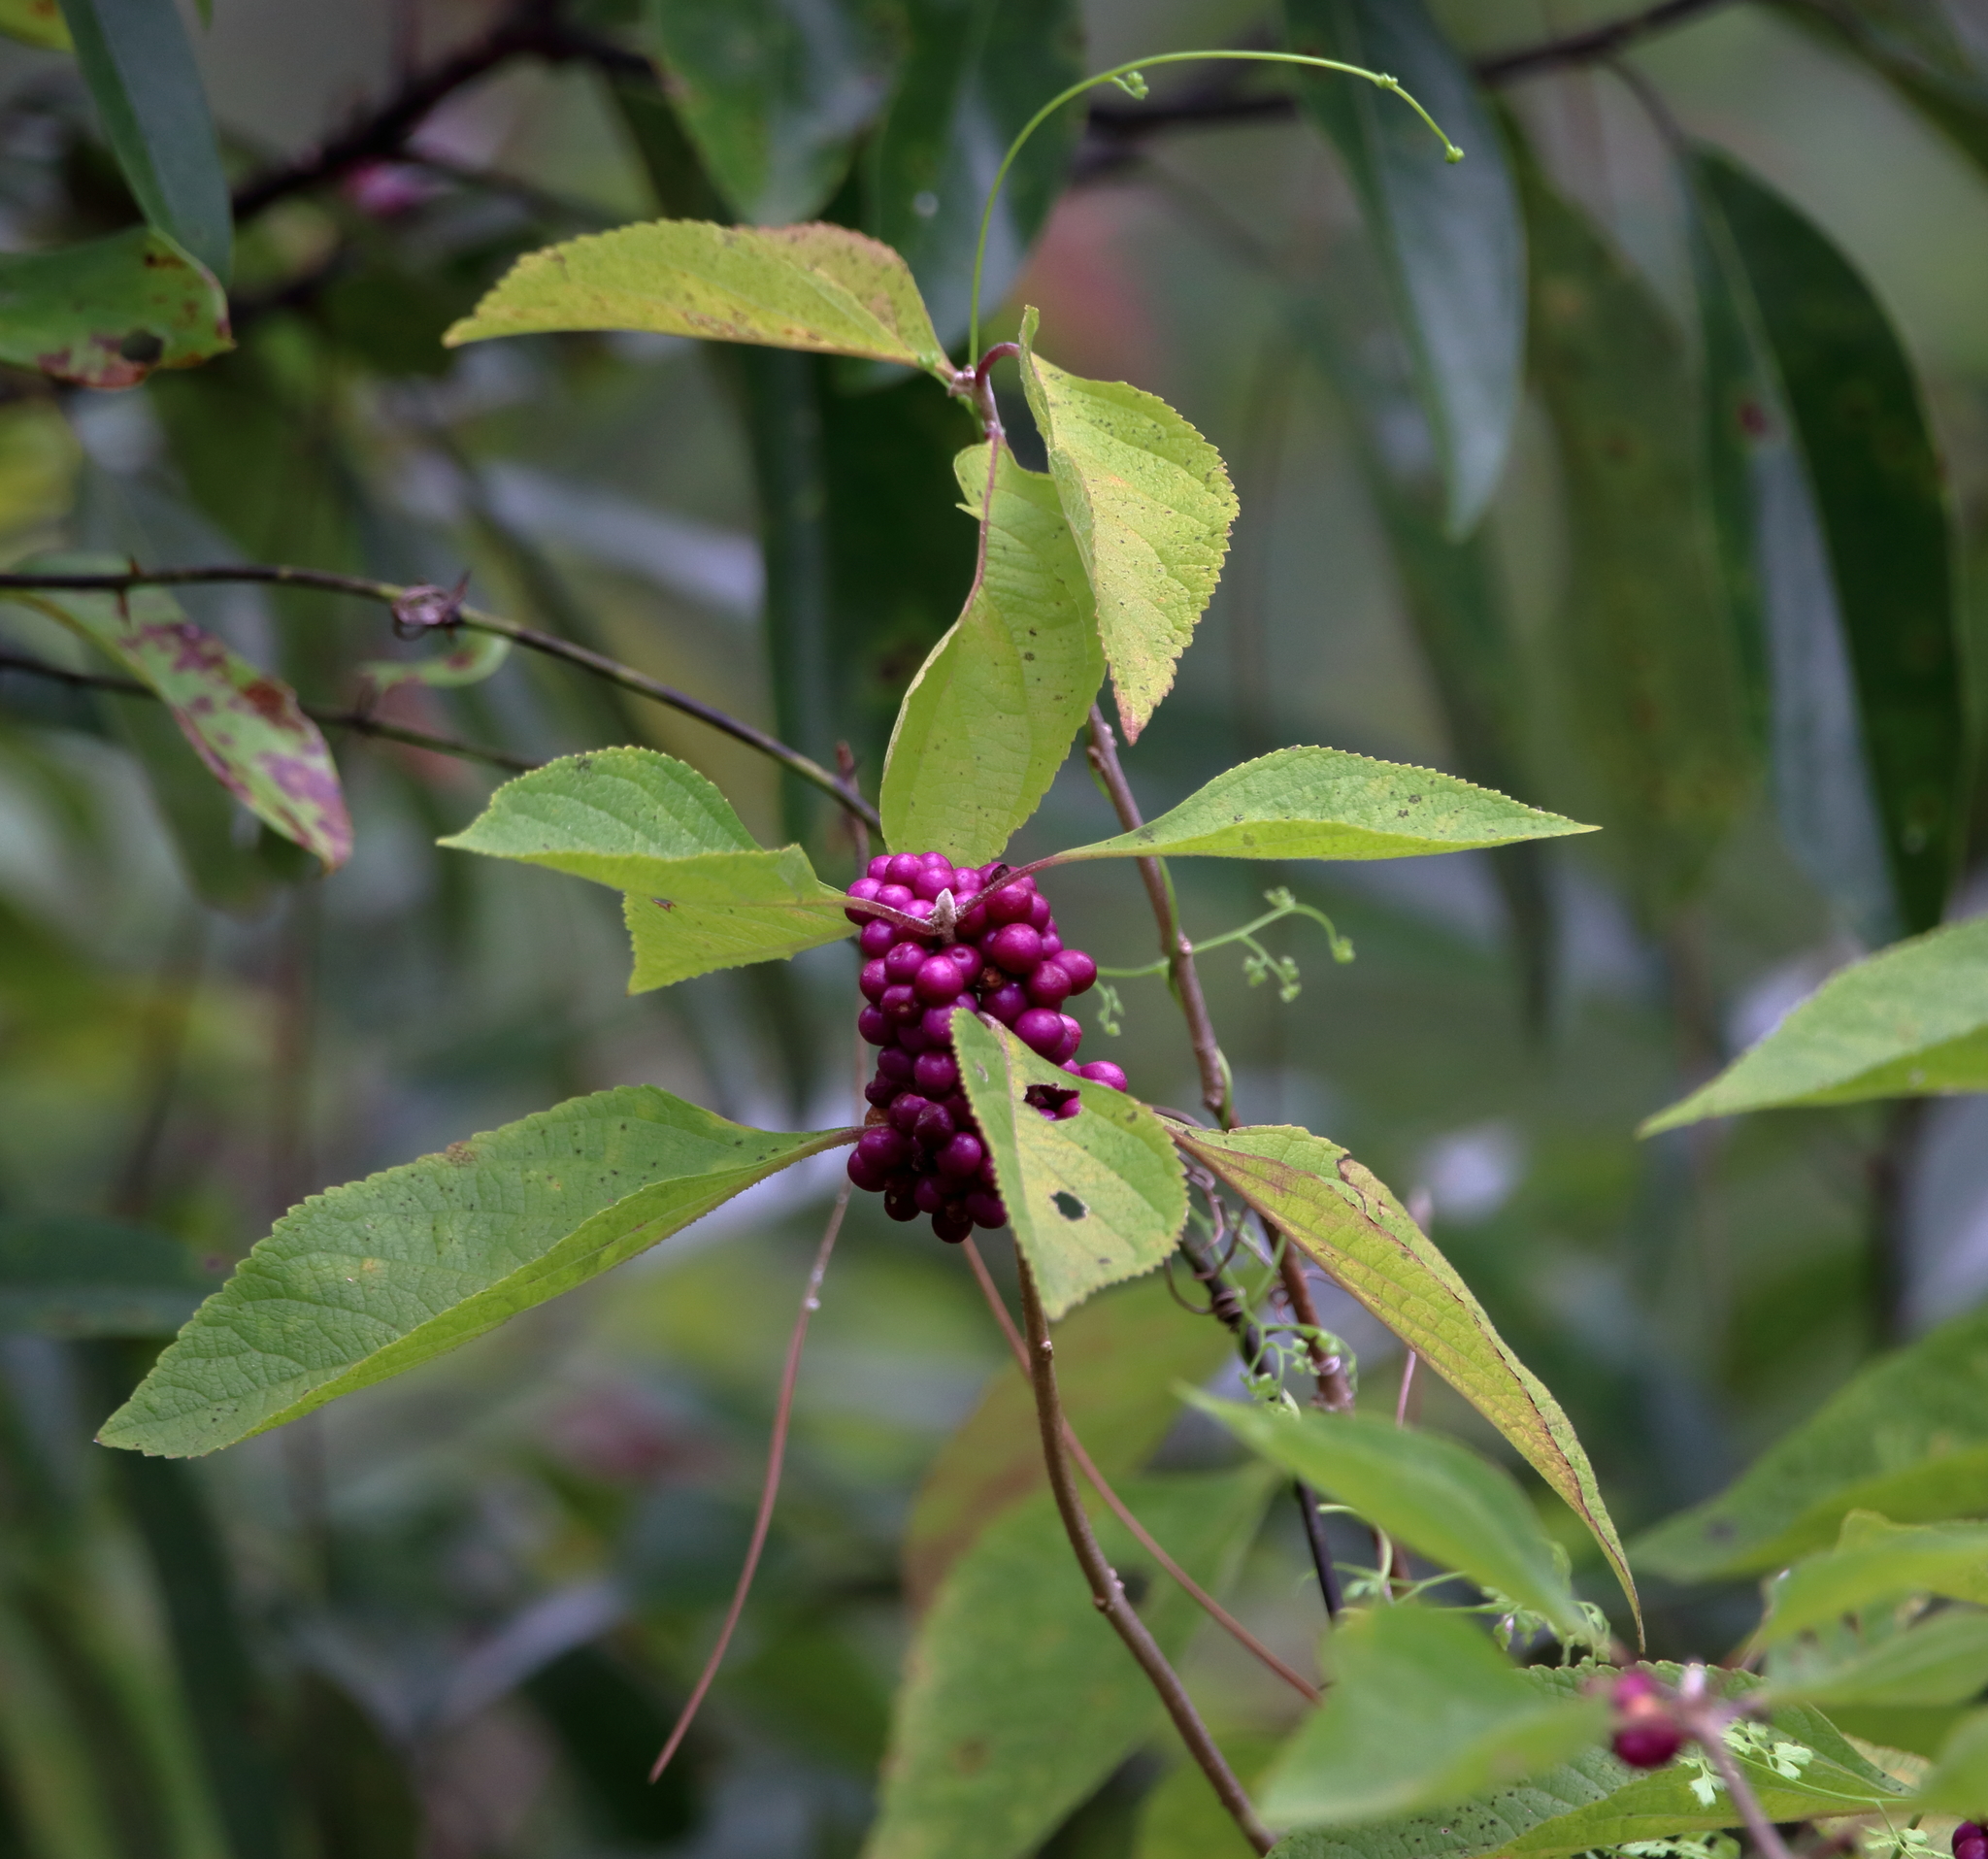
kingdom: Plantae
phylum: Tracheophyta
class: Magnoliopsida
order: Lamiales
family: Lamiaceae
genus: Callicarpa
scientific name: Callicarpa americana
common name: American beautyberry
